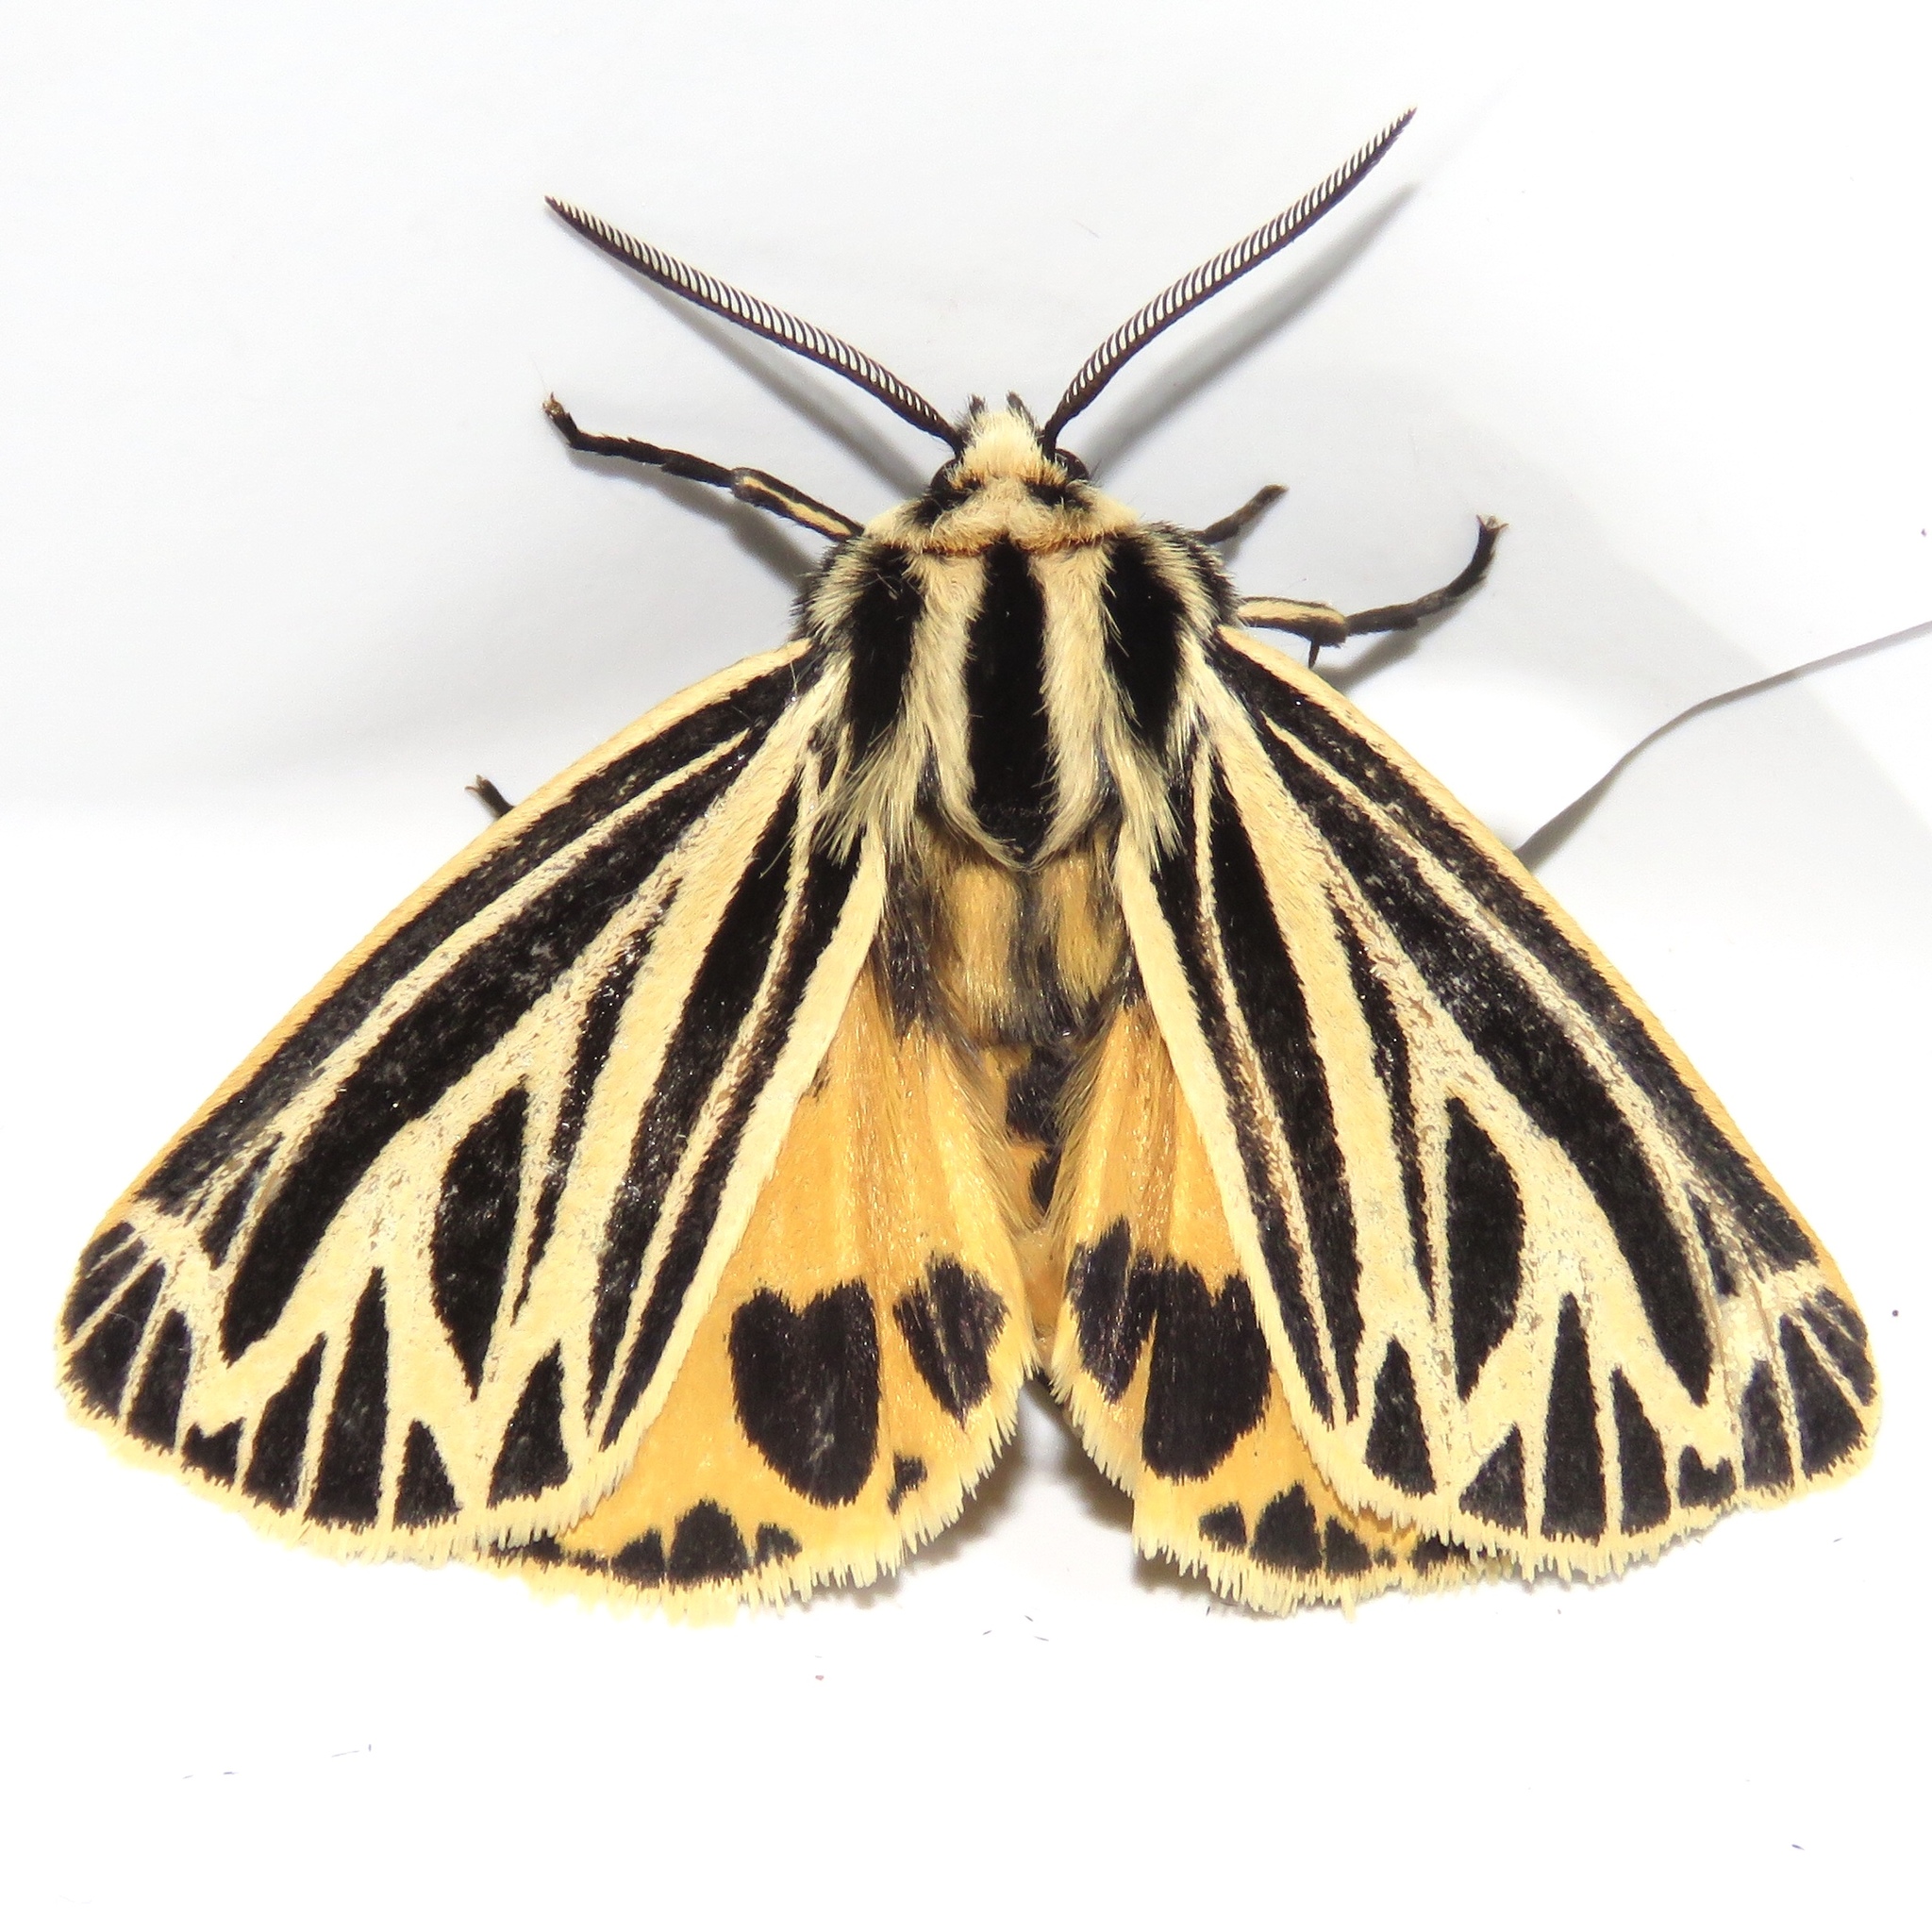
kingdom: Animalia
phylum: Arthropoda
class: Insecta
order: Lepidoptera
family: Erebidae
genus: Grammia
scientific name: Grammia virguncula
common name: Little tiger moth
